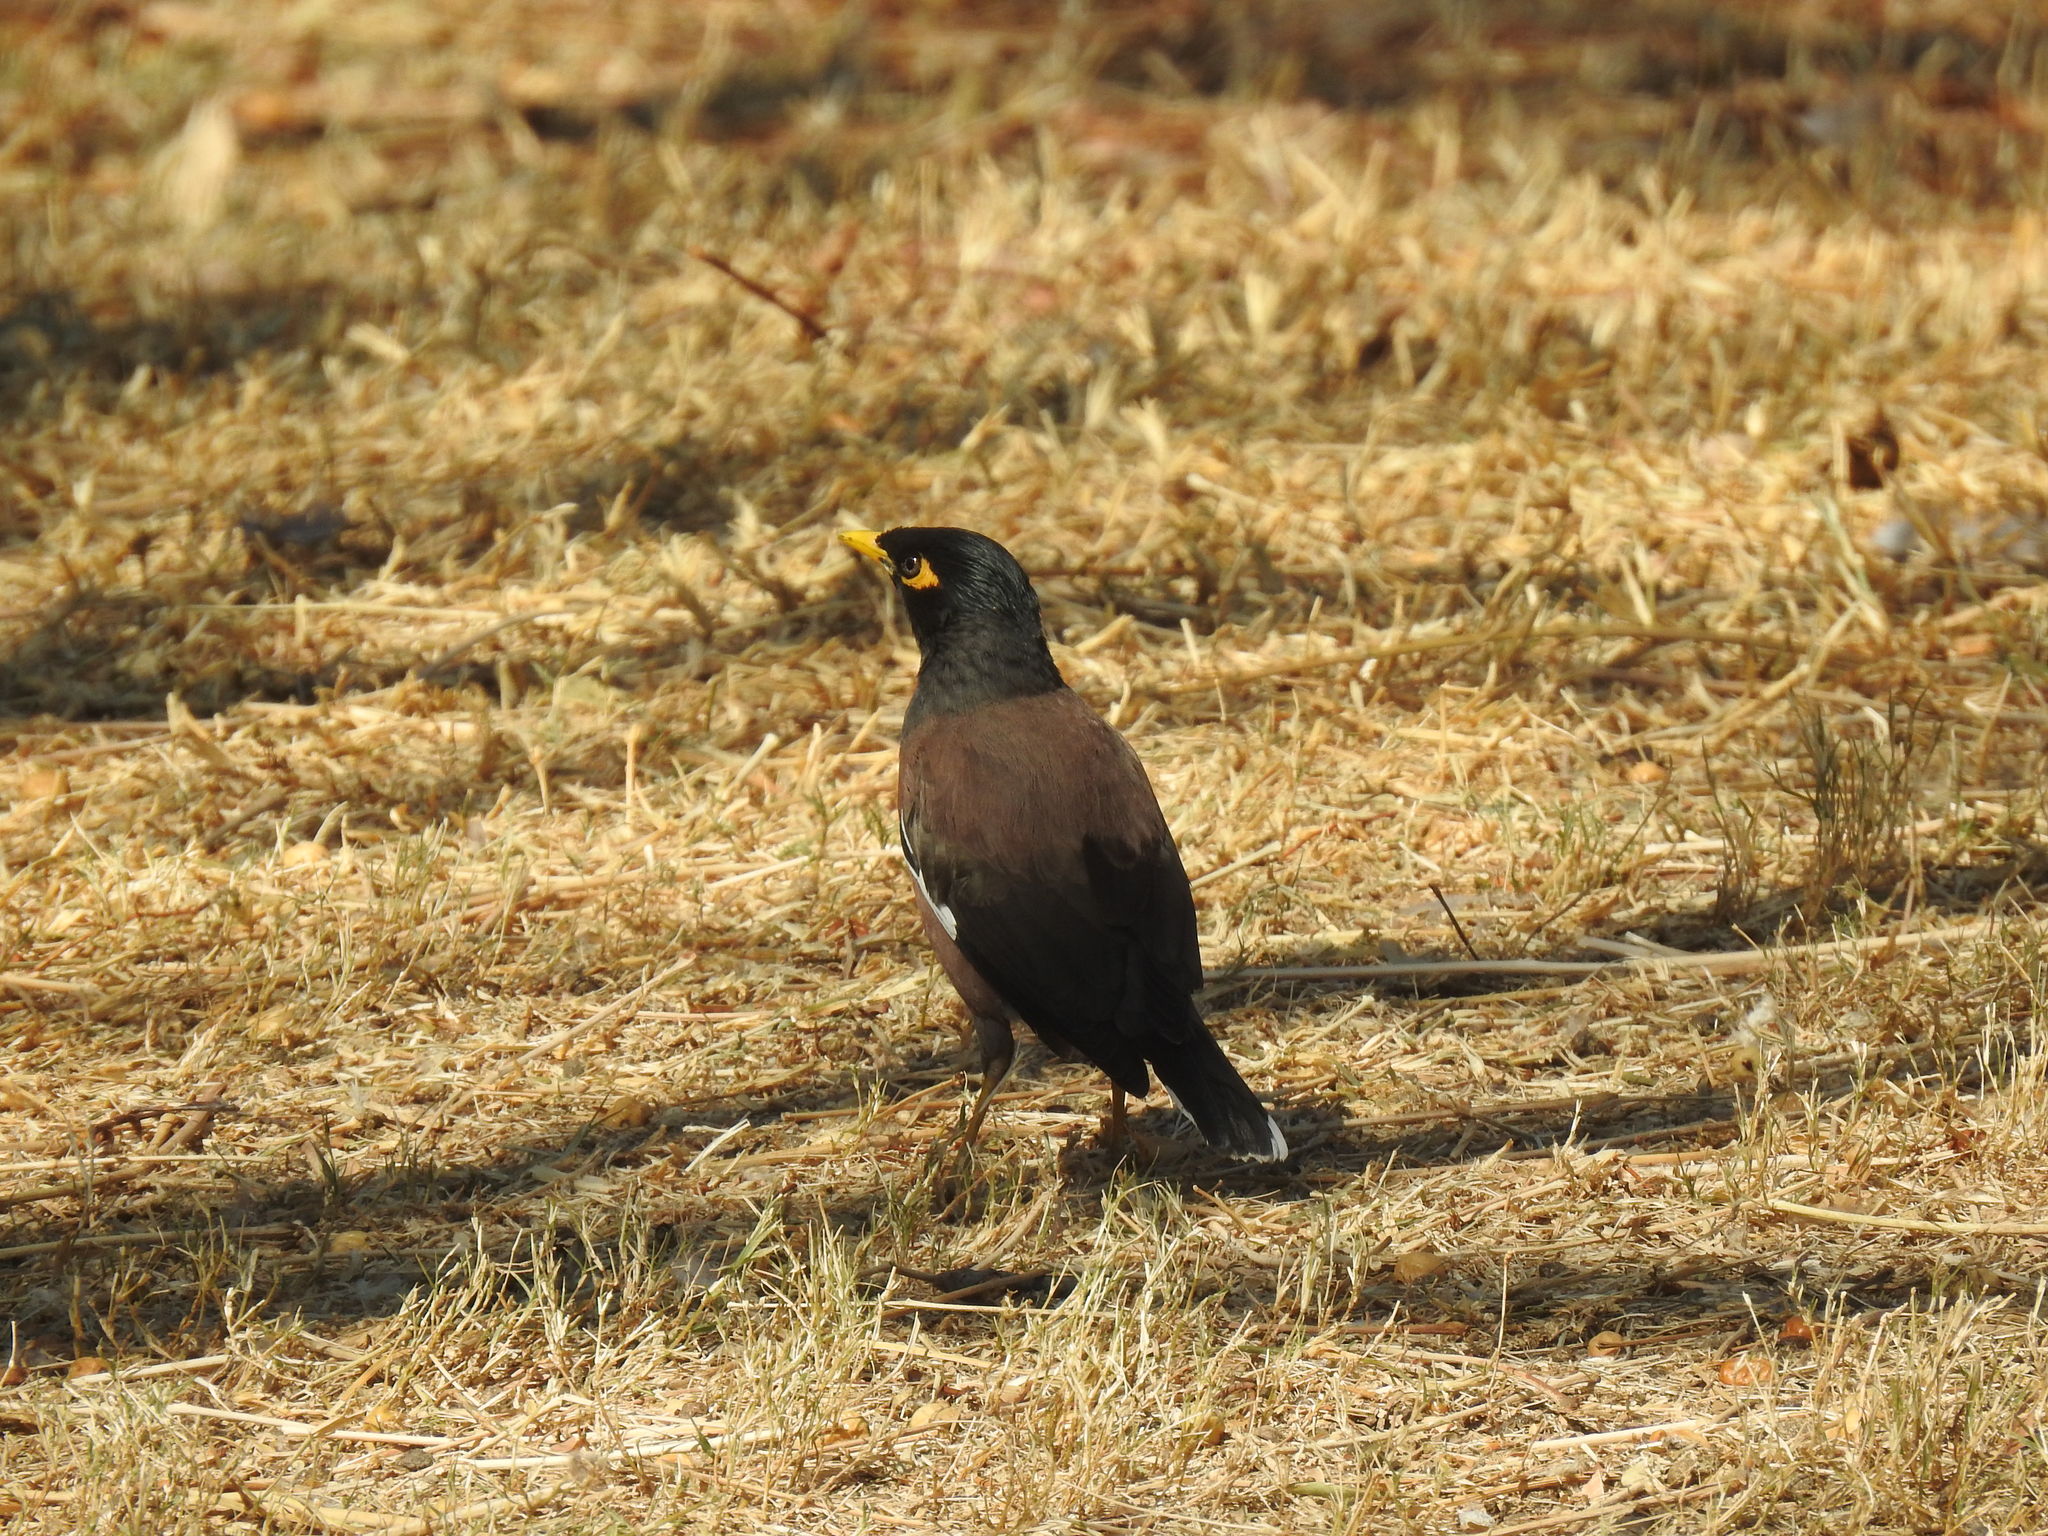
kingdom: Animalia
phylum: Chordata
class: Aves
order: Passeriformes
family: Sturnidae
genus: Acridotheres
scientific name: Acridotheres tristis
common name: Common myna
